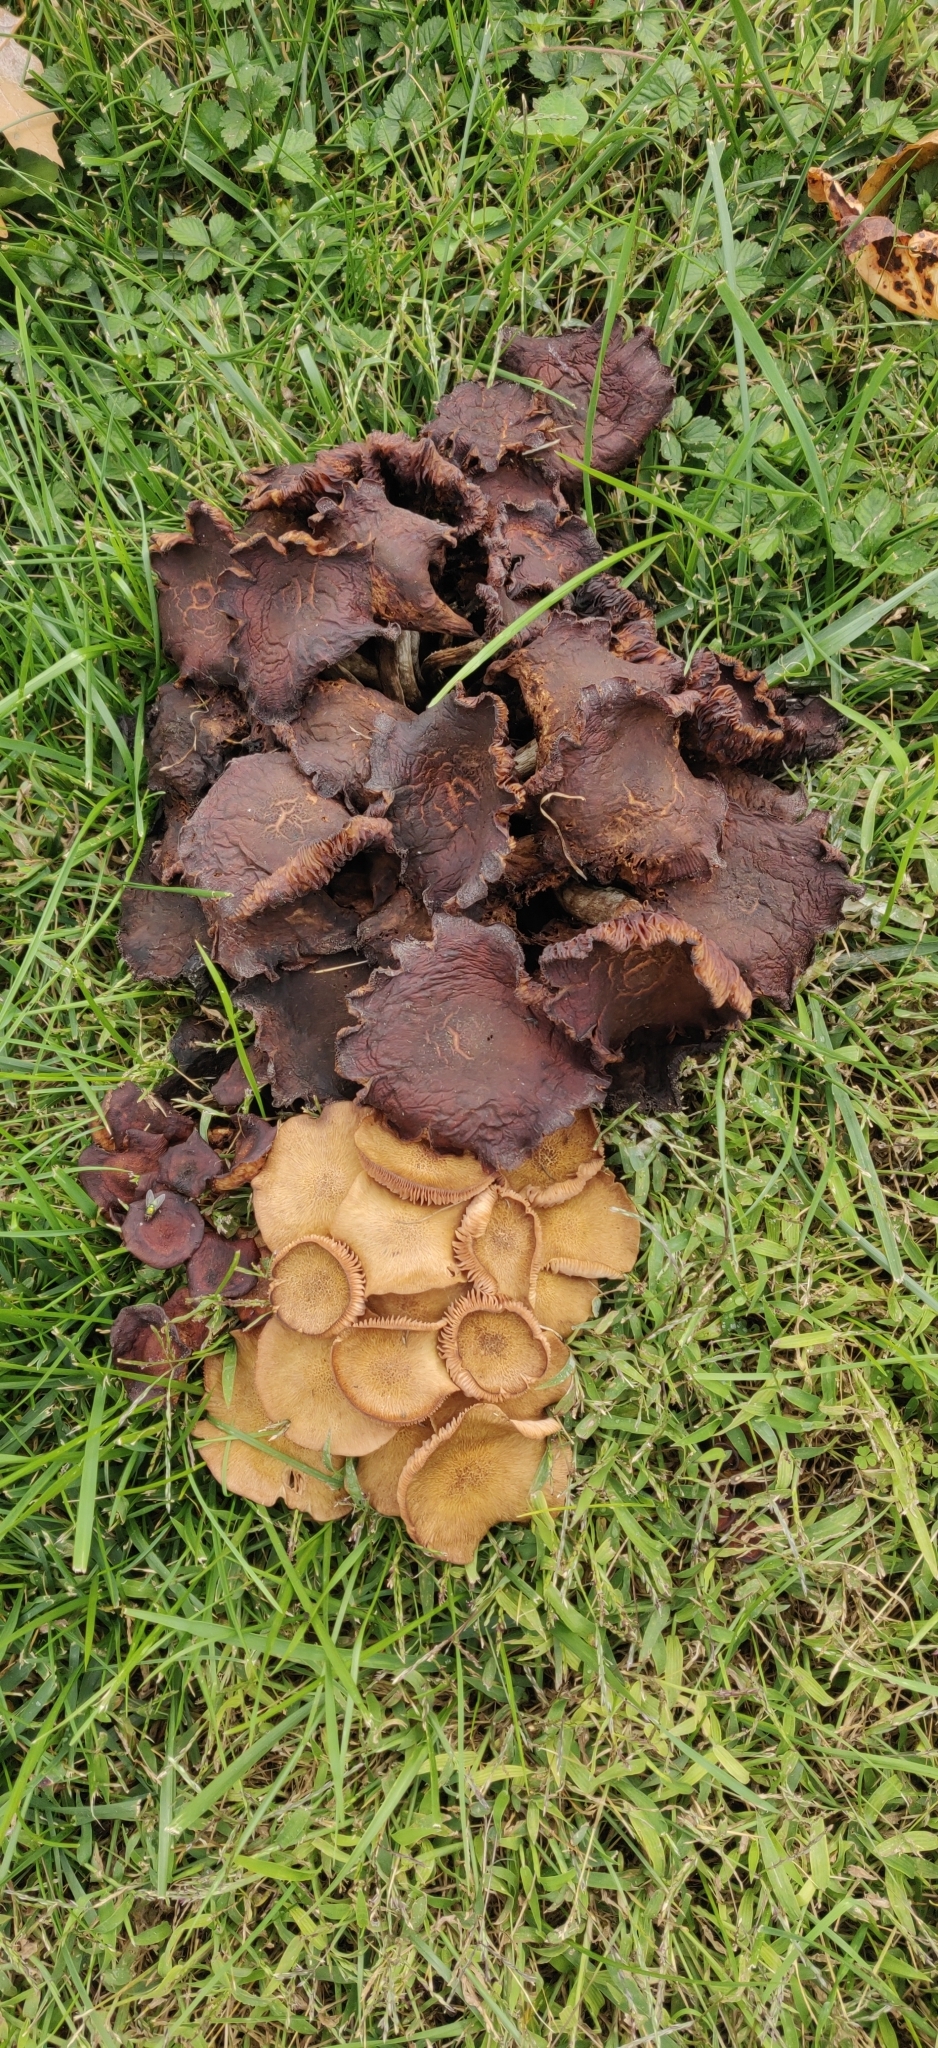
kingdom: Fungi
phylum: Basidiomycota
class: Agaricomycetes
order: Agaricales
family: Physalacriaceae
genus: Desarmillaria
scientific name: Desarmillaria caespitosa
